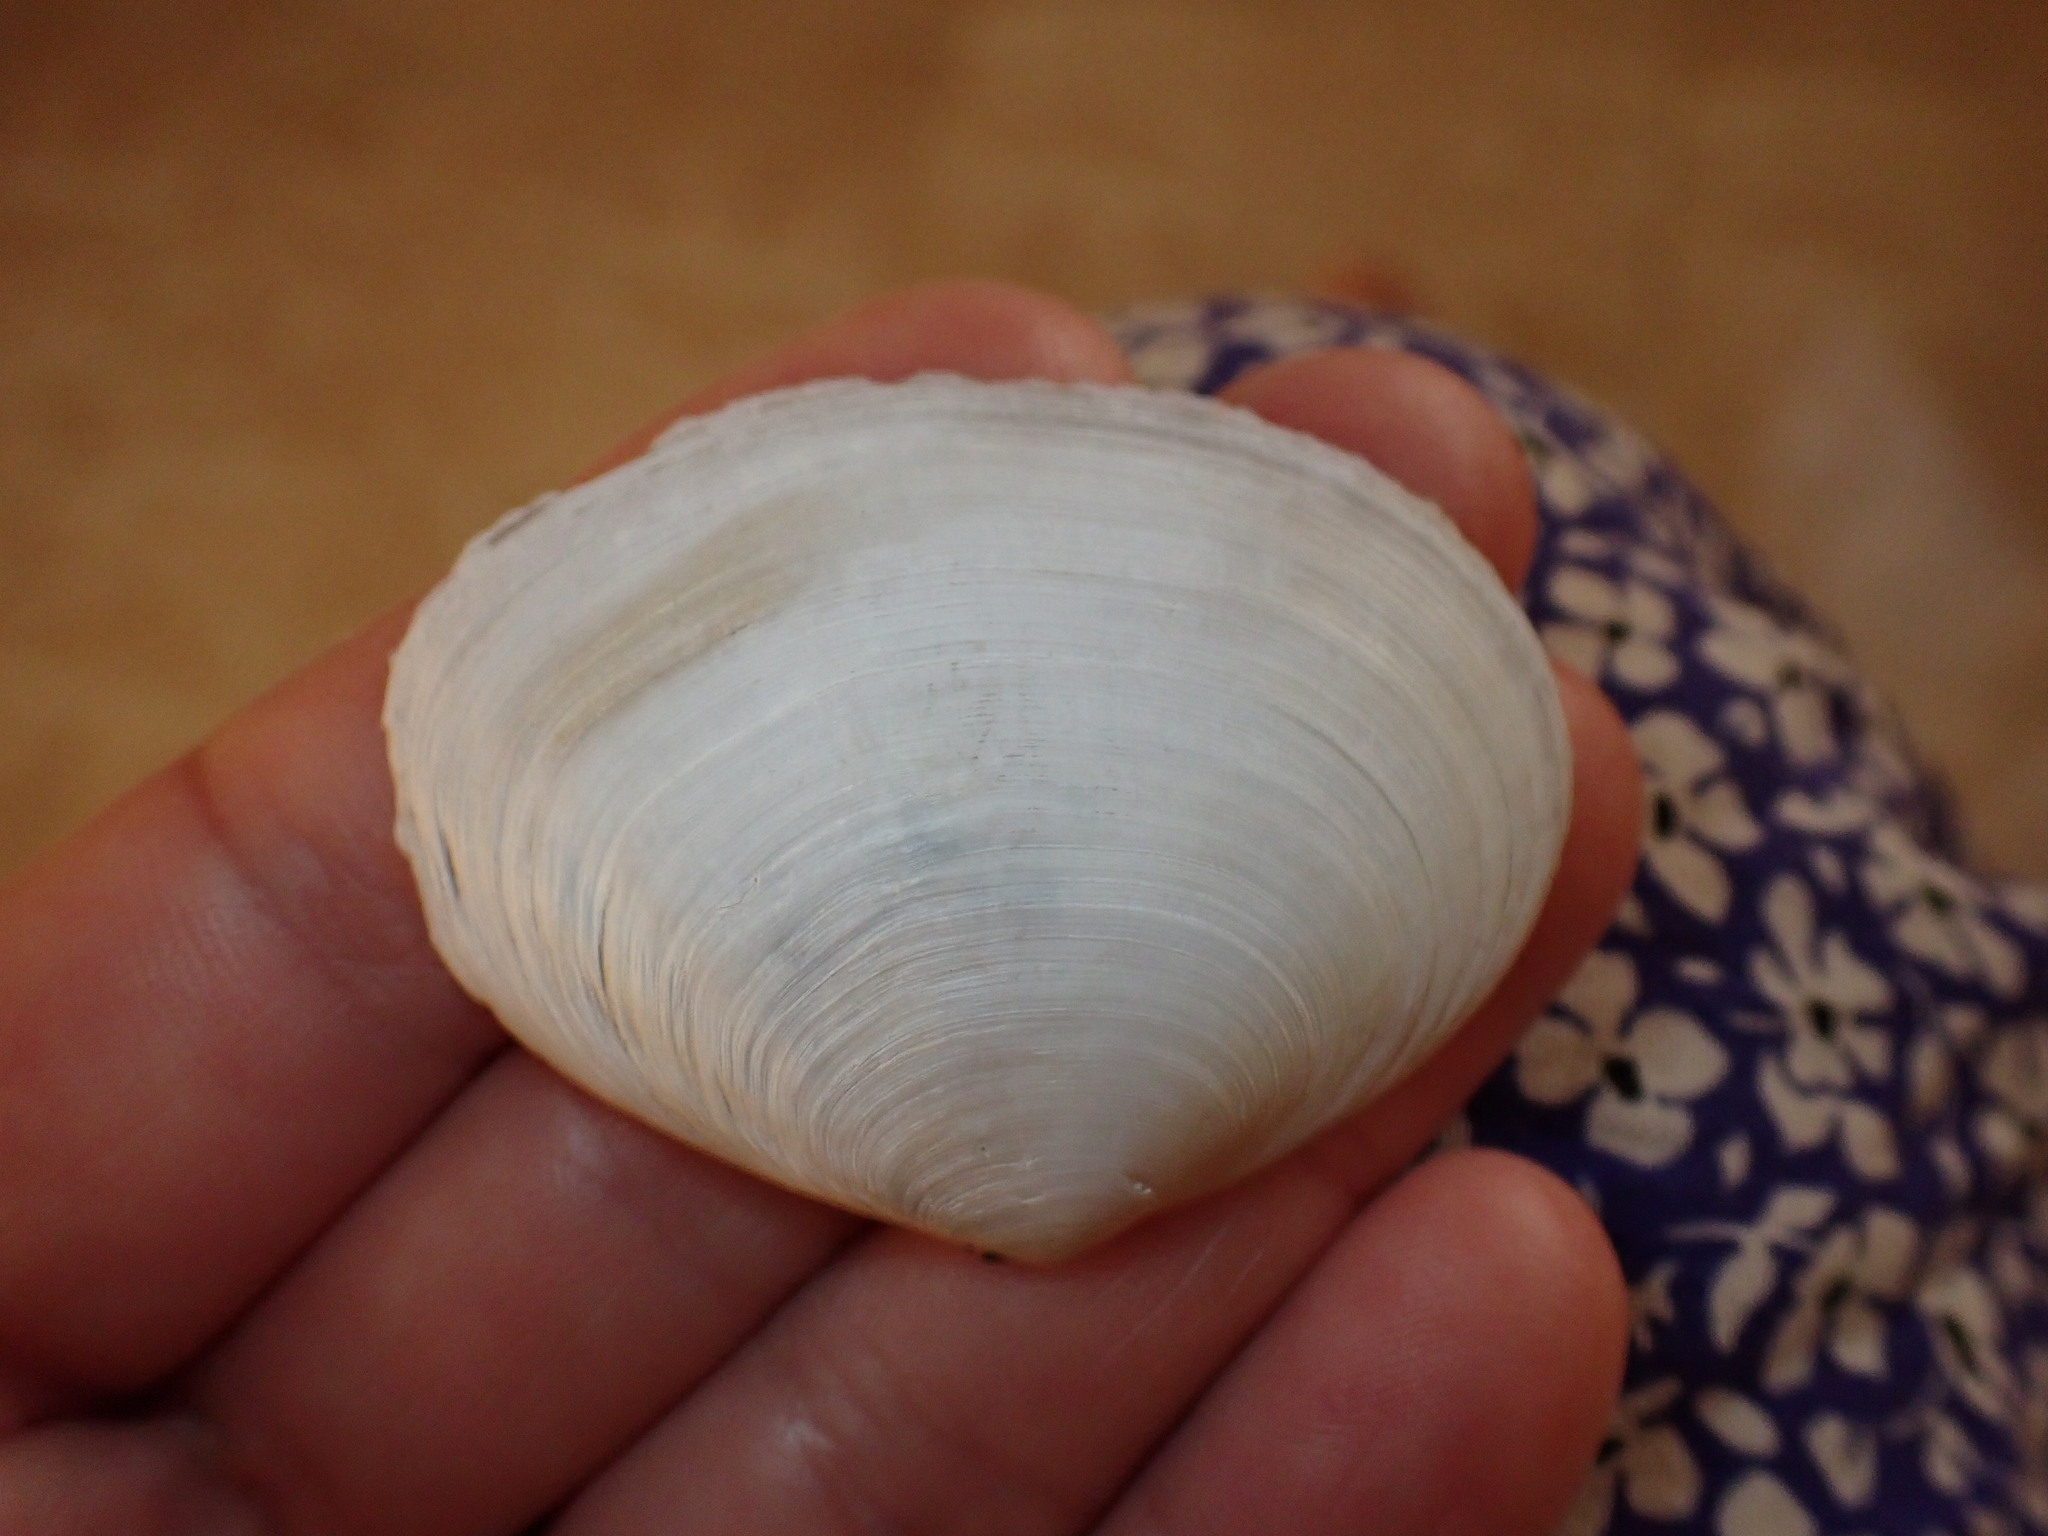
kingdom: Animalia
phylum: Mollusca
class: Bivalvia
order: Cardiida
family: Semelidae
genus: Scrobicularia
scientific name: Scrobicularia plana
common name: Peppery furrow shell
